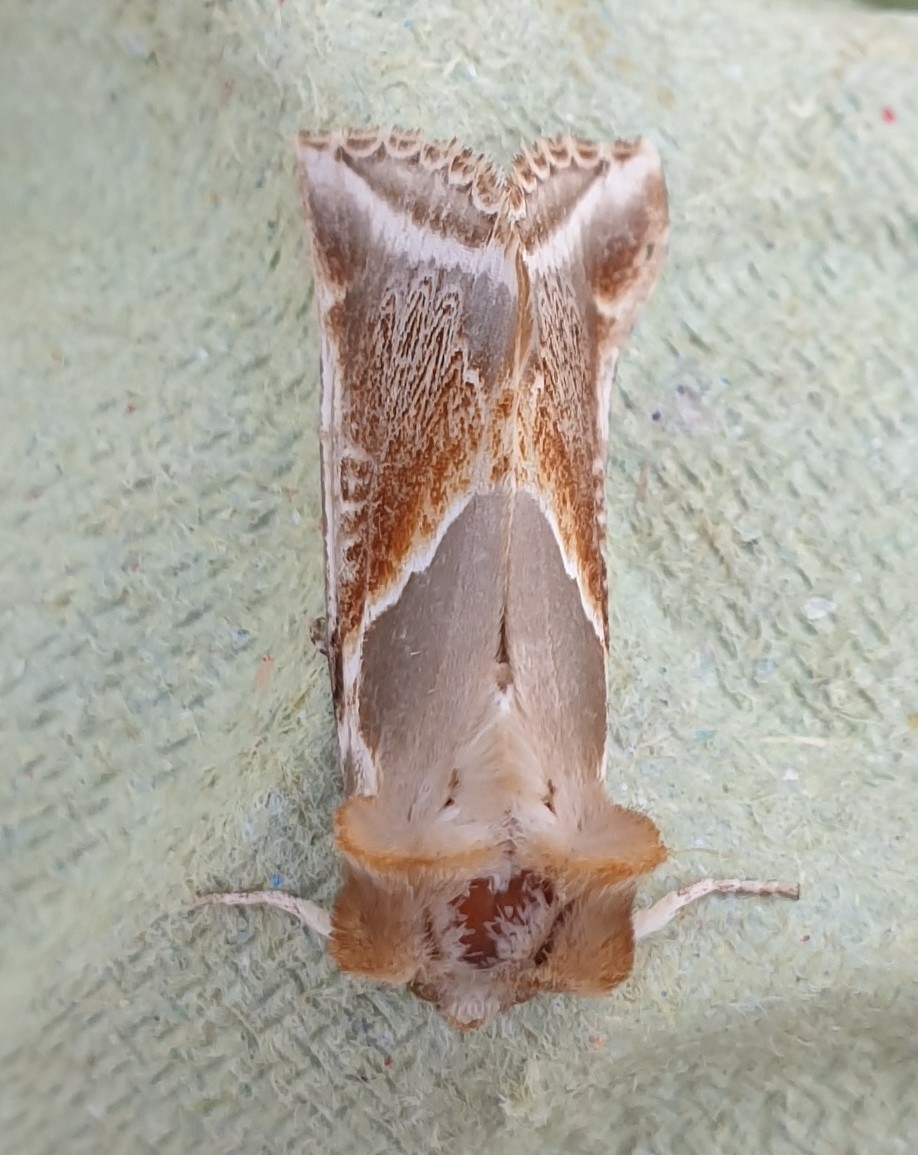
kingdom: Animalia
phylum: Arthropoda
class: Insecta
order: Lepidoptera
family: Drepanidae
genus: Habrosyne
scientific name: Habrosyne pyritoides
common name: Buff arches
